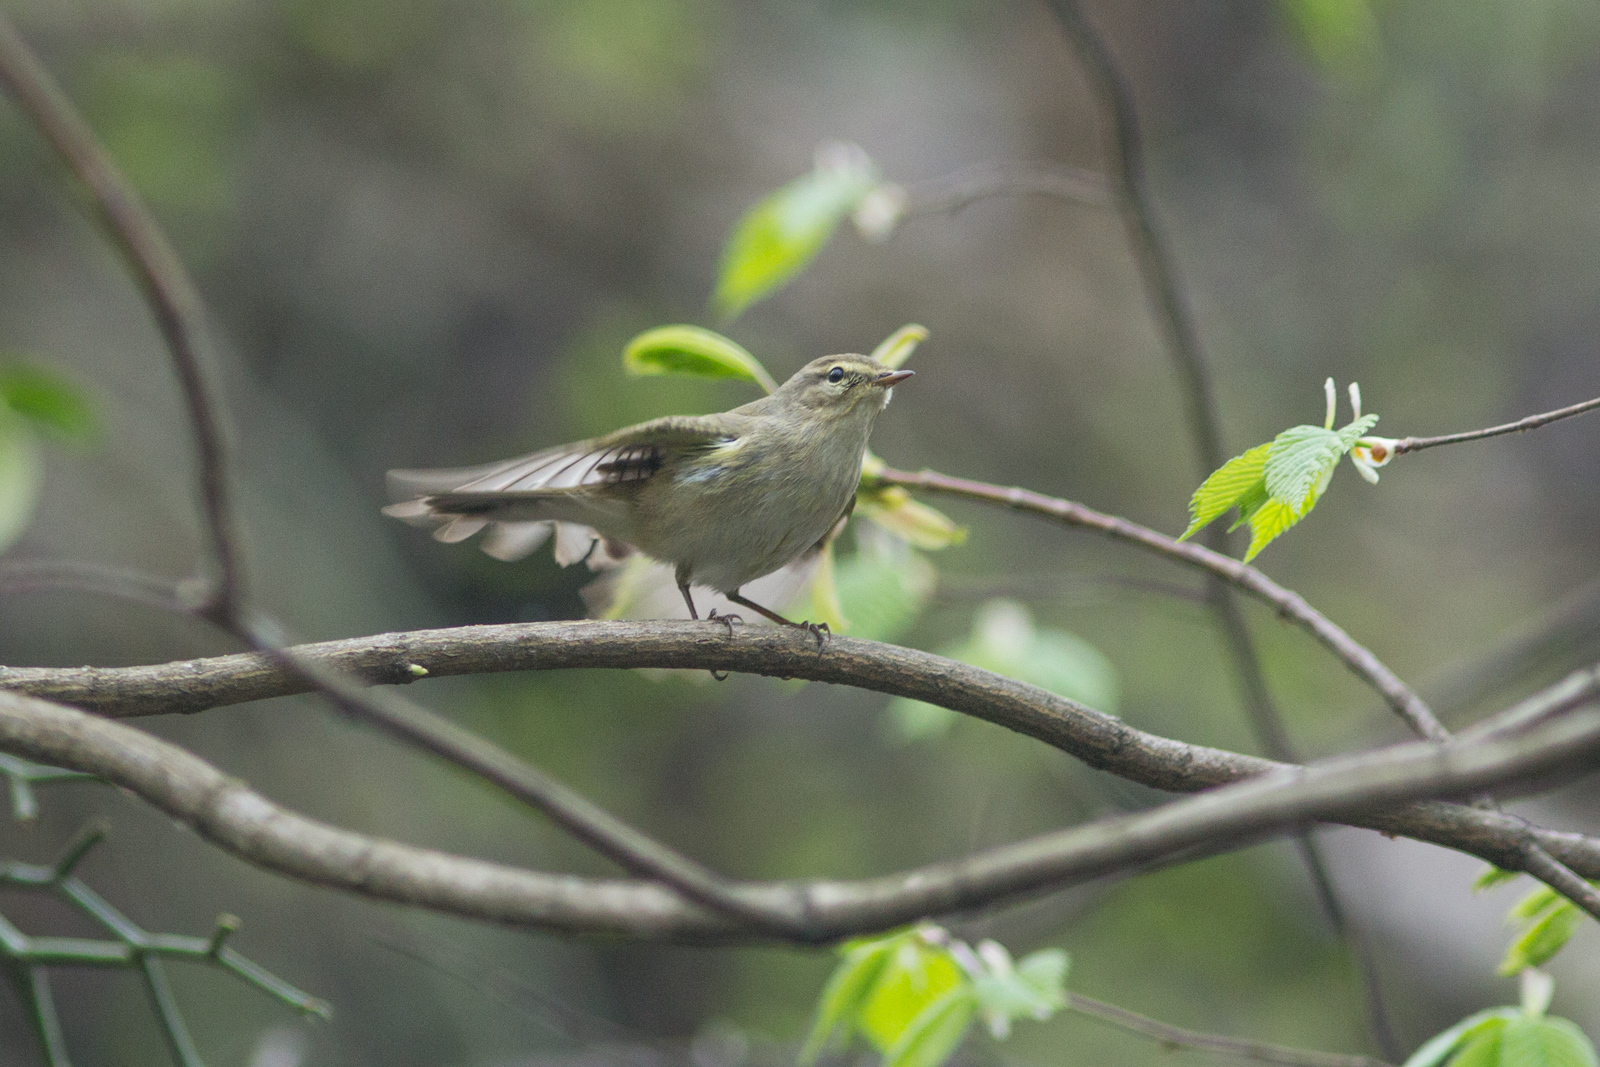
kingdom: Animalia
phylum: Chordata
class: Aves
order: Passeriformes
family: Phylloscopidae
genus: Phylloscopus
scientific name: Phylloscopus collybita
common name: Common chiffchaff
